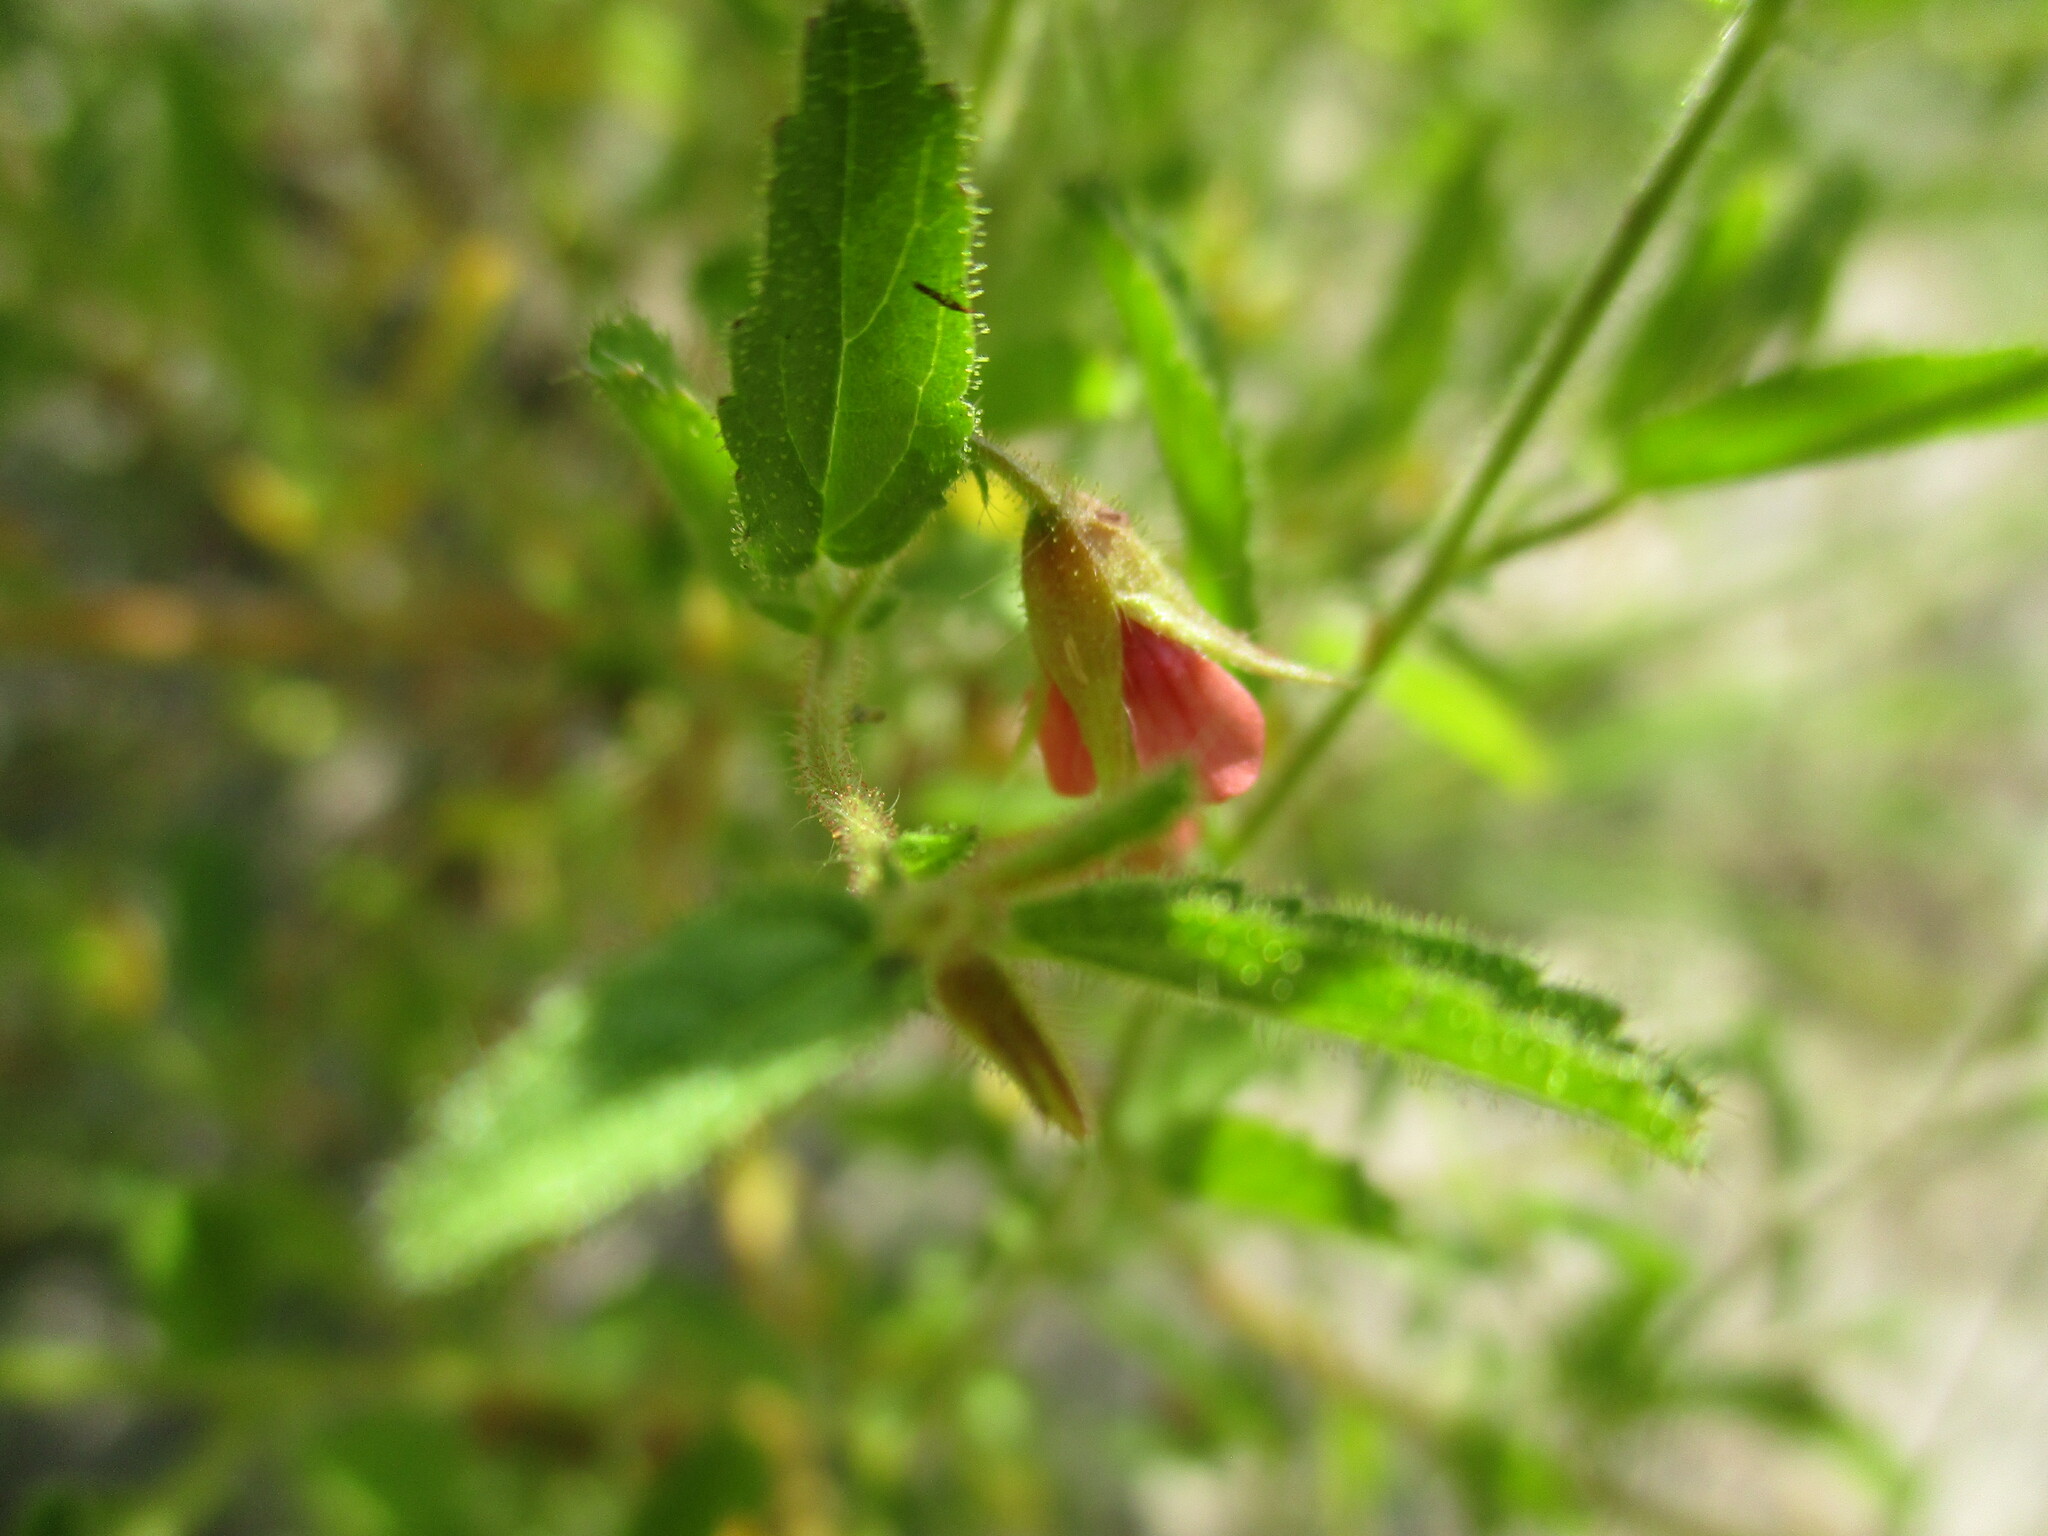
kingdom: Plantae
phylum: Tracheophyta
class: Magnoliopsida
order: Malvales
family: Malvaceae
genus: Hermannia
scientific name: Hermannia glanduligera
